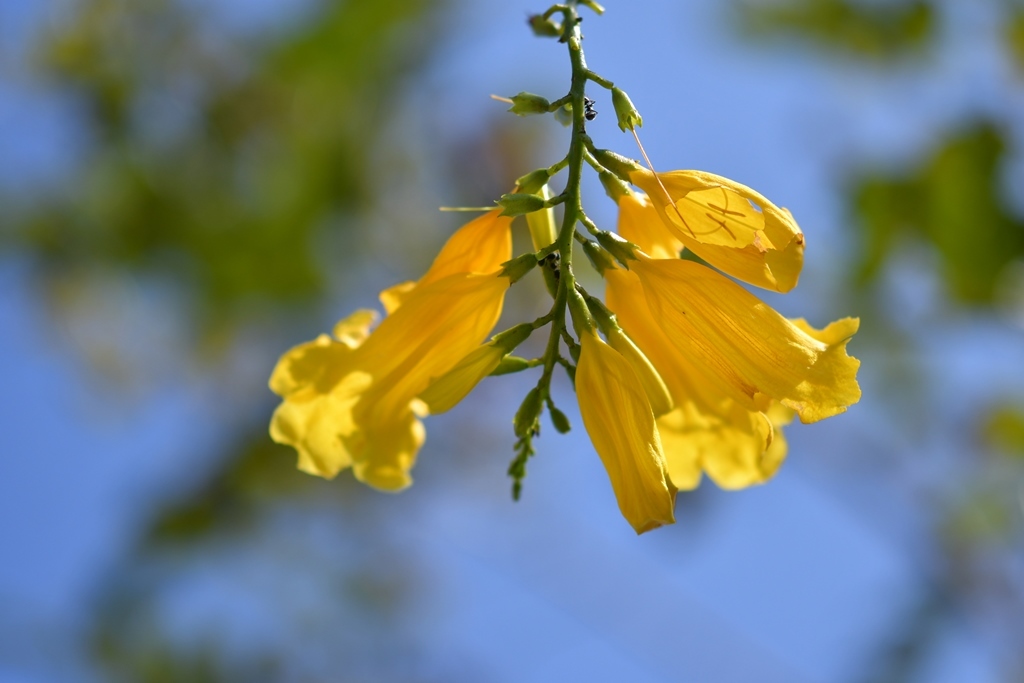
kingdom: Plantae
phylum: Tracheophyta
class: Magnoliopsida
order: Lamiales
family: Bignoniaceae
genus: Tecoma
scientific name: Tecoma stans
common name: Yellow trumpetbush
